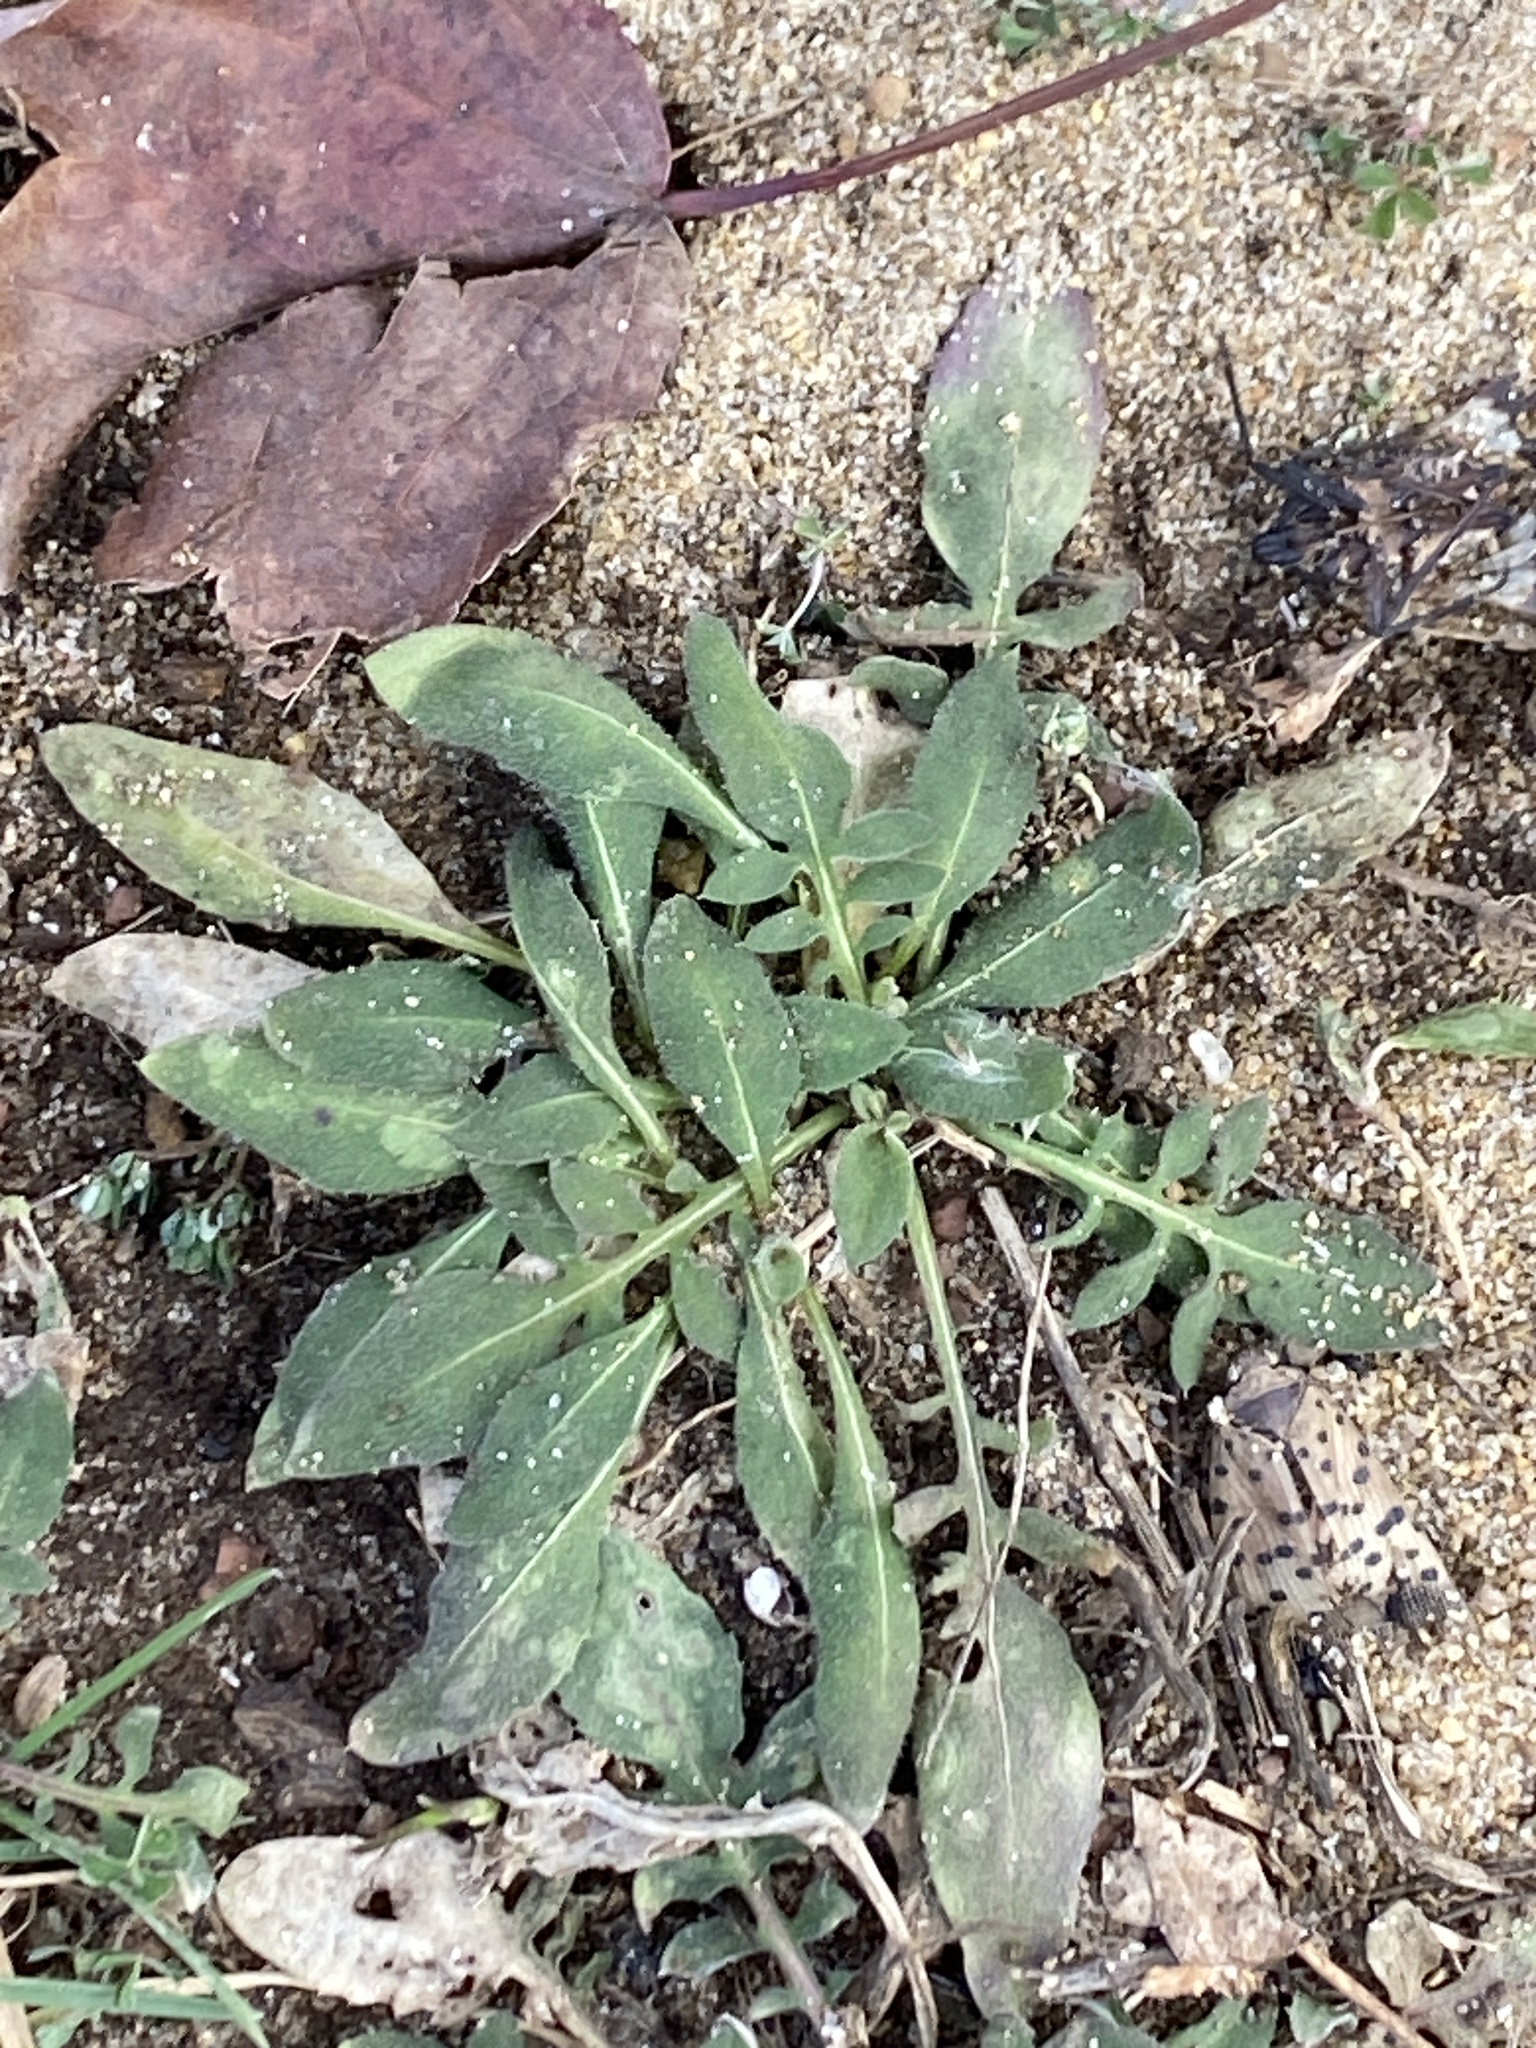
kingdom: Plantae
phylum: Tracheophyta
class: Magnoliopsida
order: Asterales
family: Asteraceae
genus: Centaurea
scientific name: Centaurea stoebe
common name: Spotted knapweed
